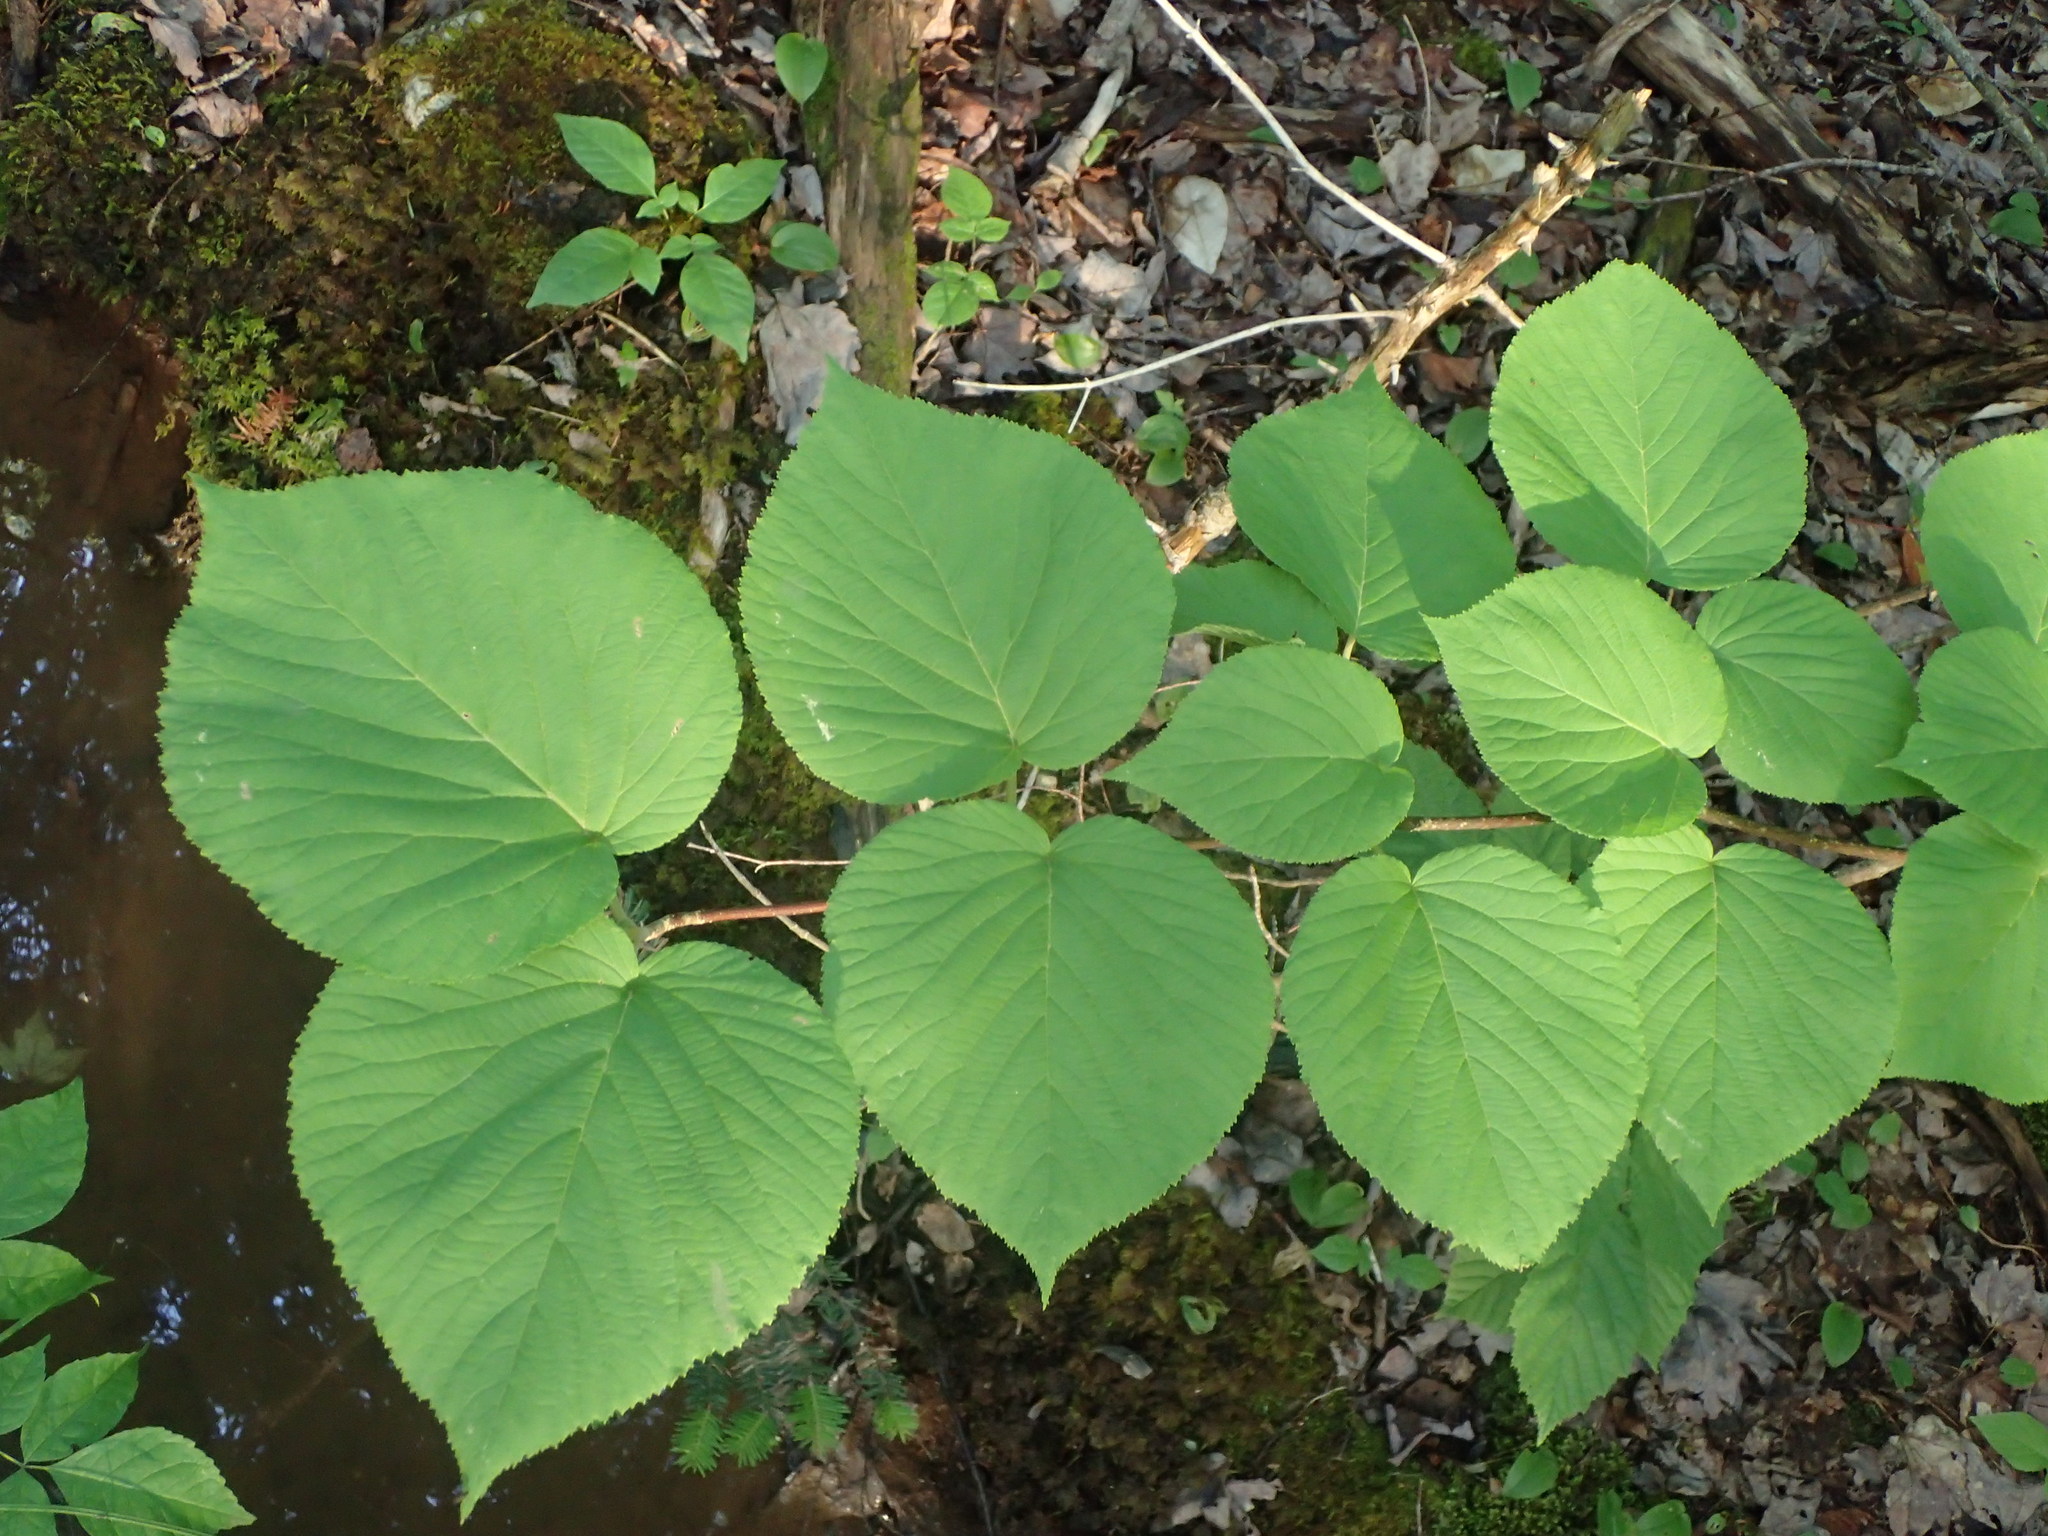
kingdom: Plantae
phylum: Tracheophyta
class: Magnoliopsida
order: Dipsacales
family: Viburnaceae
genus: Viburnum
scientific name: Viburnum lantanoides
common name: Hobblebush
